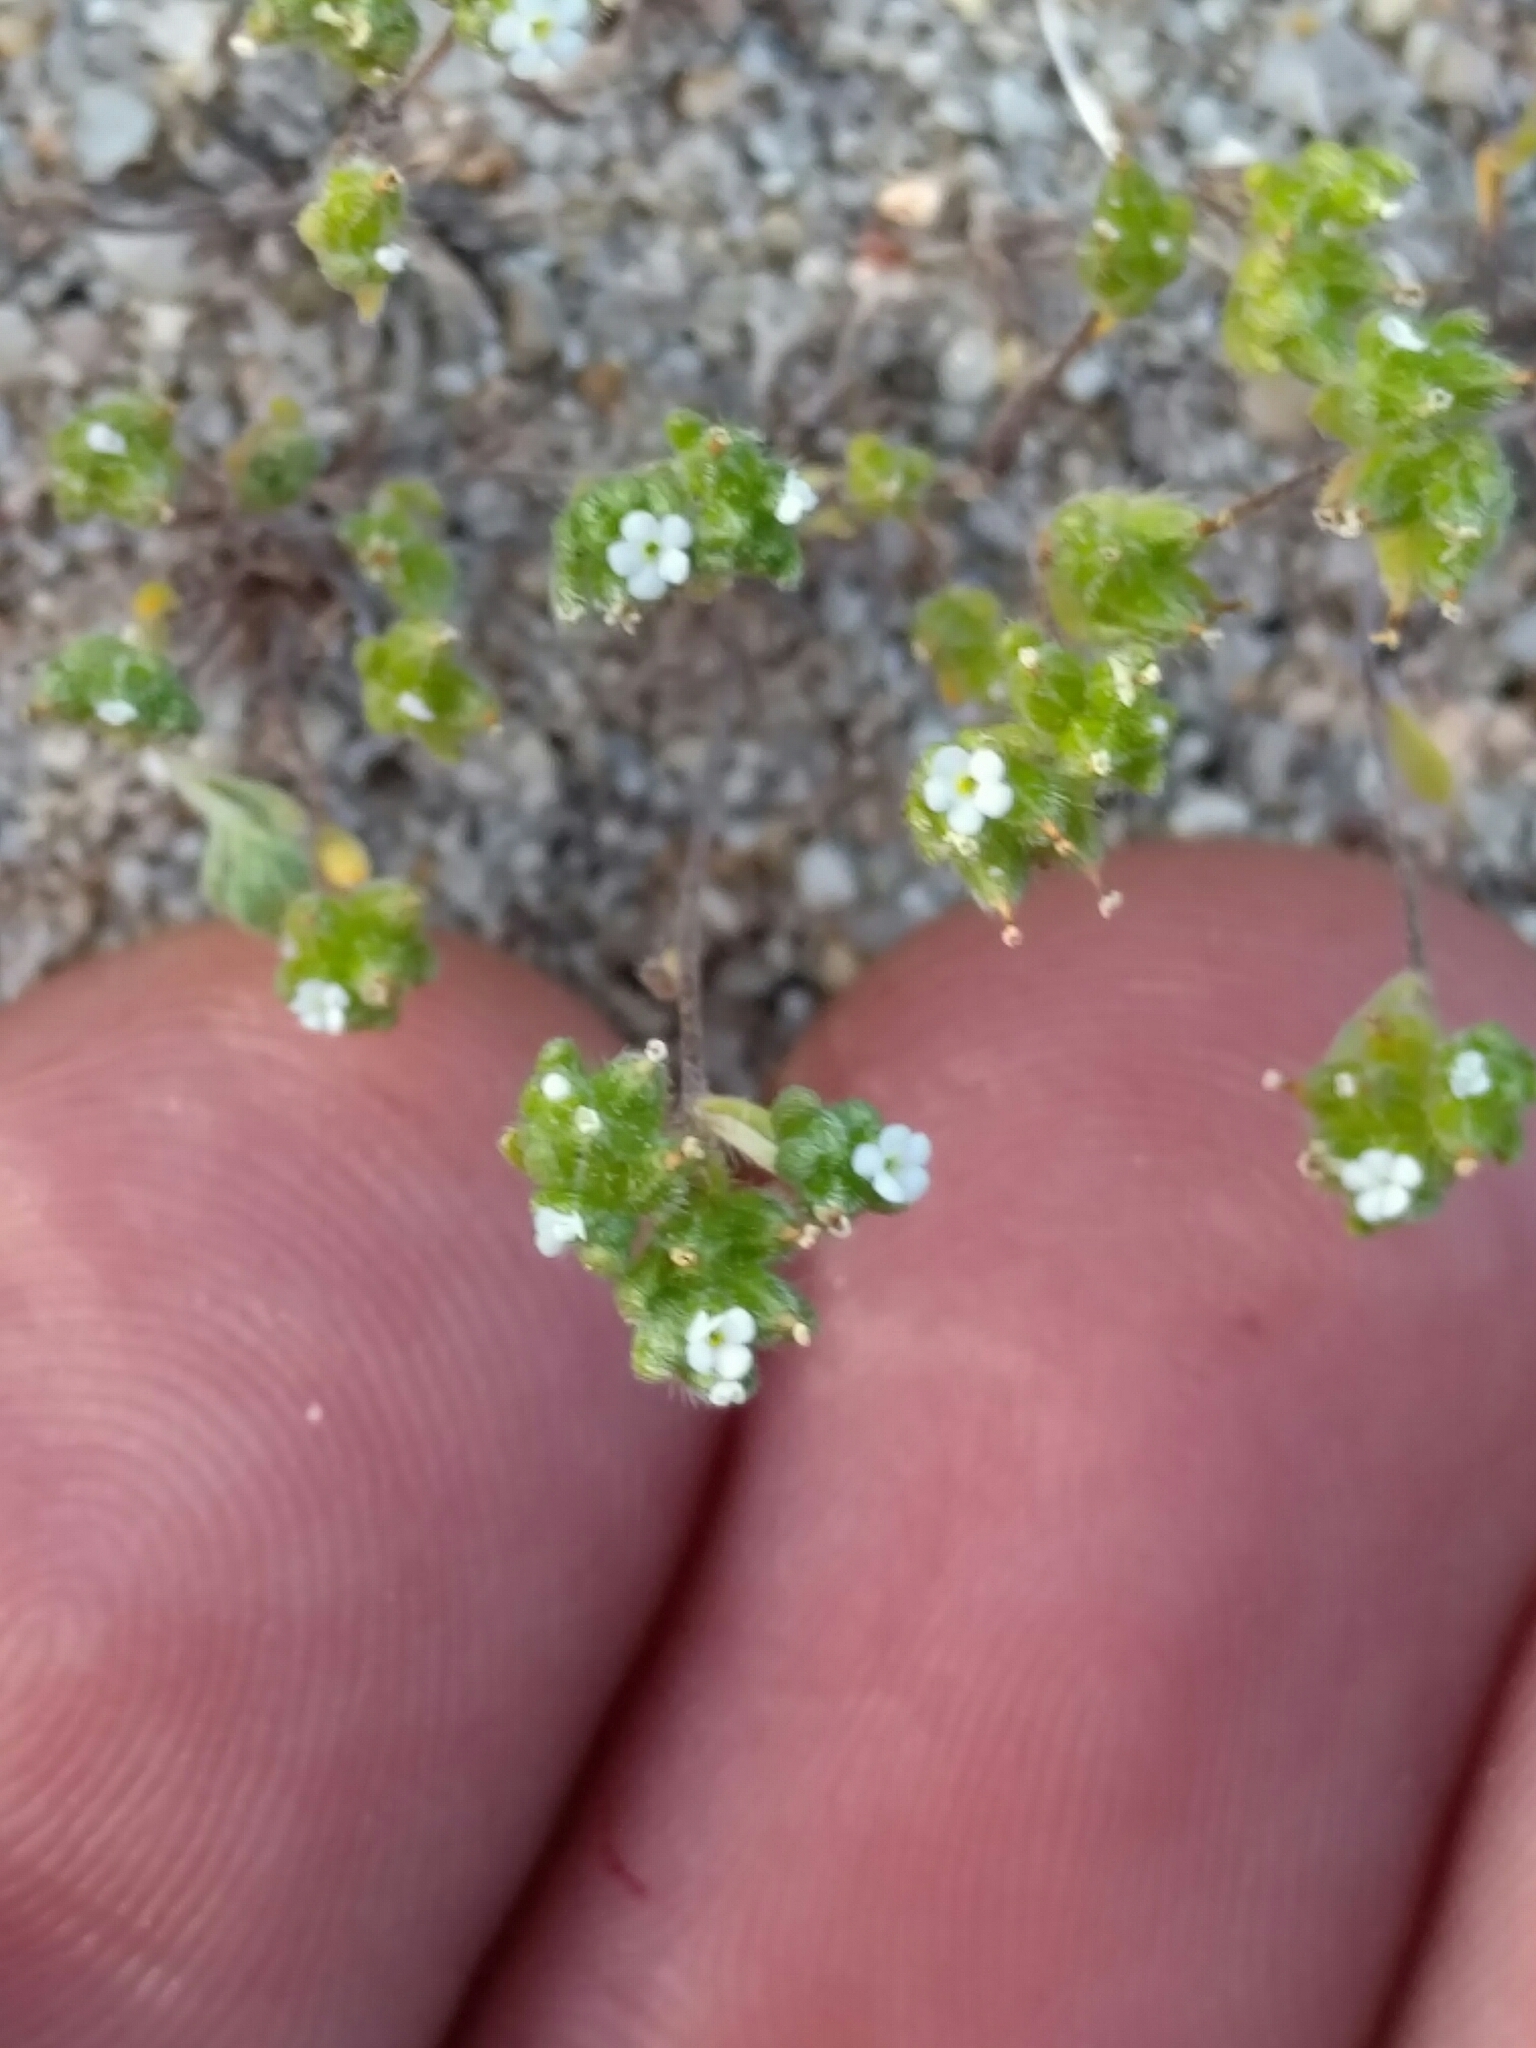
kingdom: Plantae
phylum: Tracheophyta
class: Magnoliopsida
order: Boraginales
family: Boraginaceae
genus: Eremocarya
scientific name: Eremocarya micrantha
